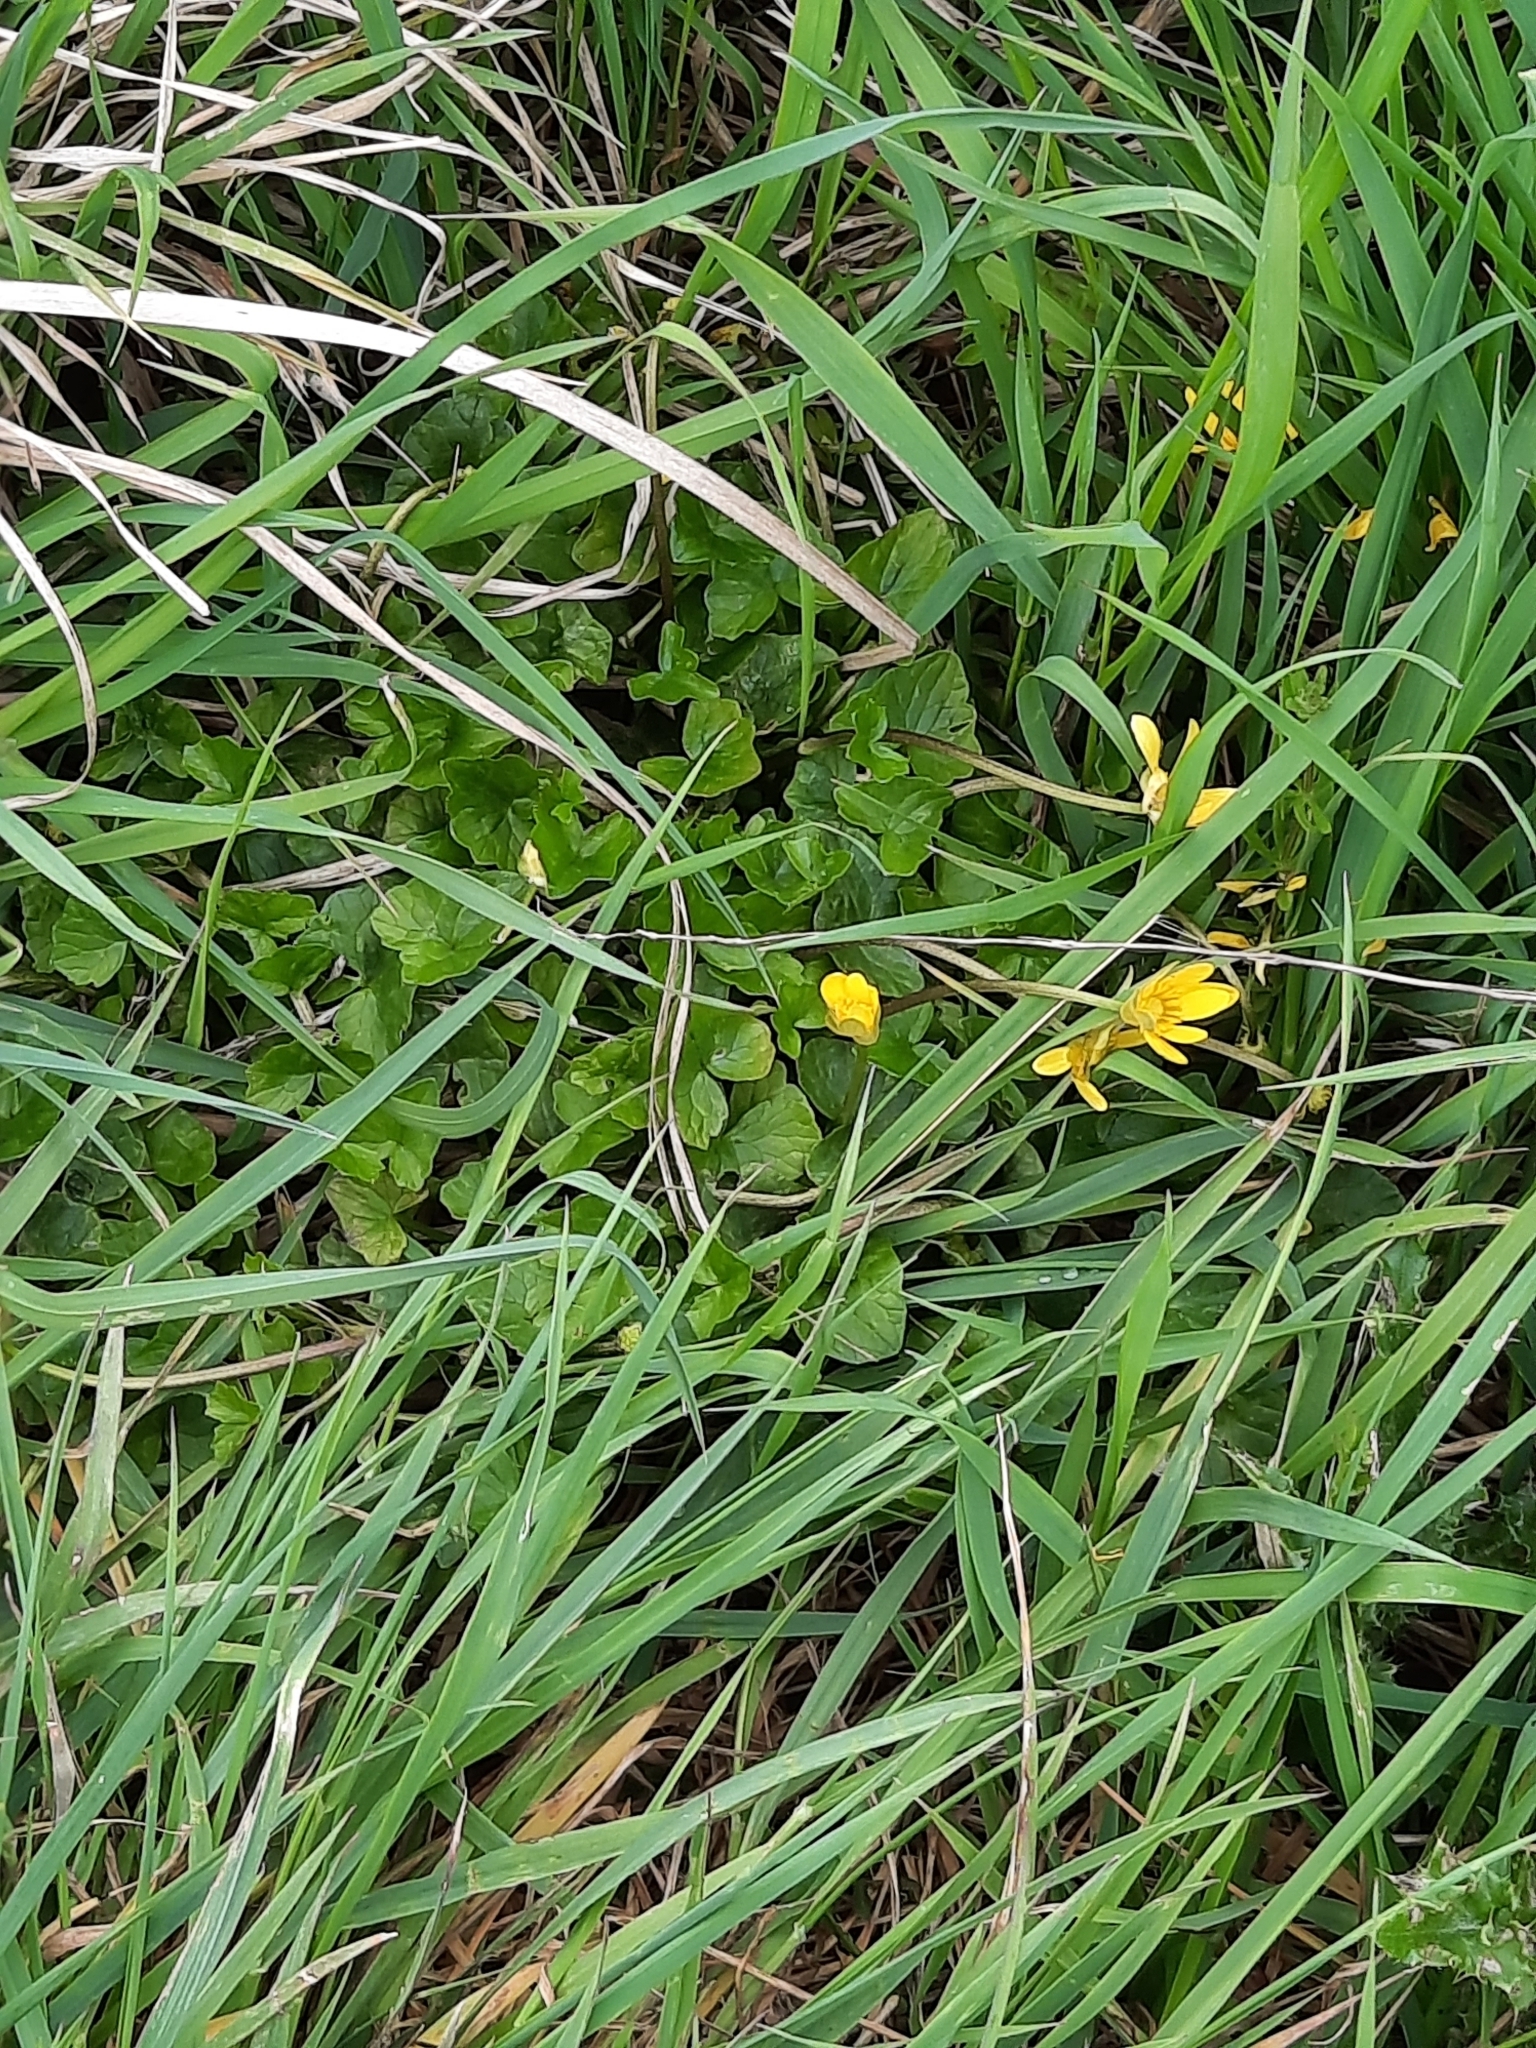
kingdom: Plantae
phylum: Tracheophyta
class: Magnoliopsida
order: Ranunculales
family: Ranunculaceae
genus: Ficaria
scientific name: Ficaria verna
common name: Lesser celandine
